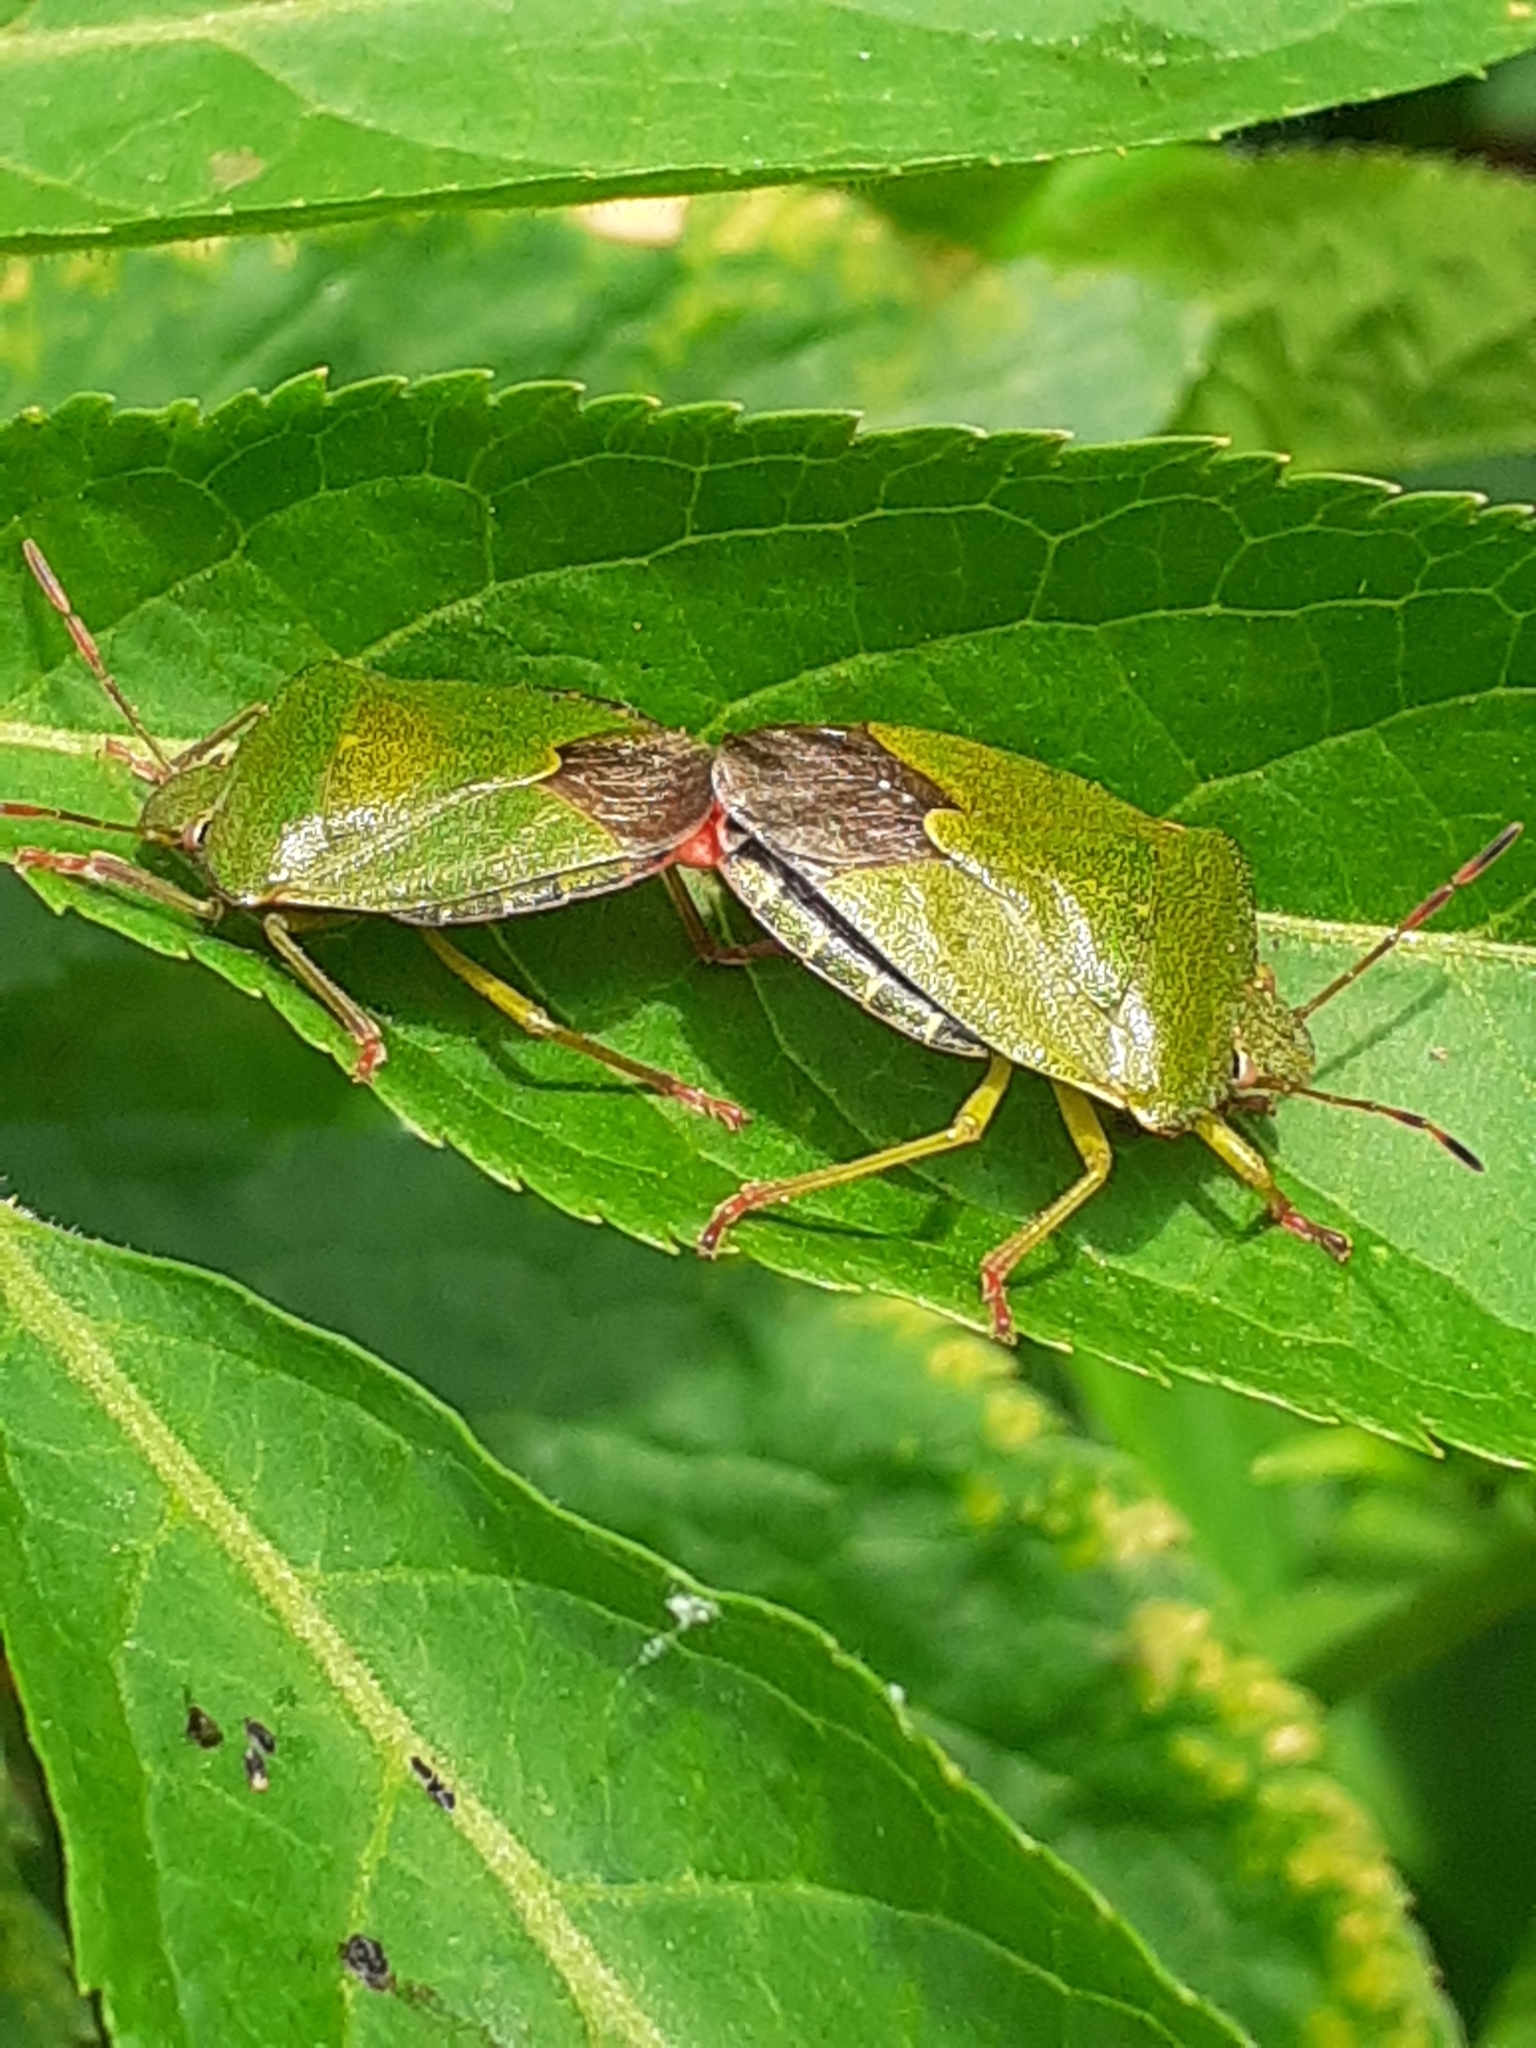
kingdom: Animalia
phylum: Arthropoda
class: Insecta
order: Hemiptera
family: Pentatomidae
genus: Palomena
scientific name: Palomena prasina
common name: Green shieldbug
